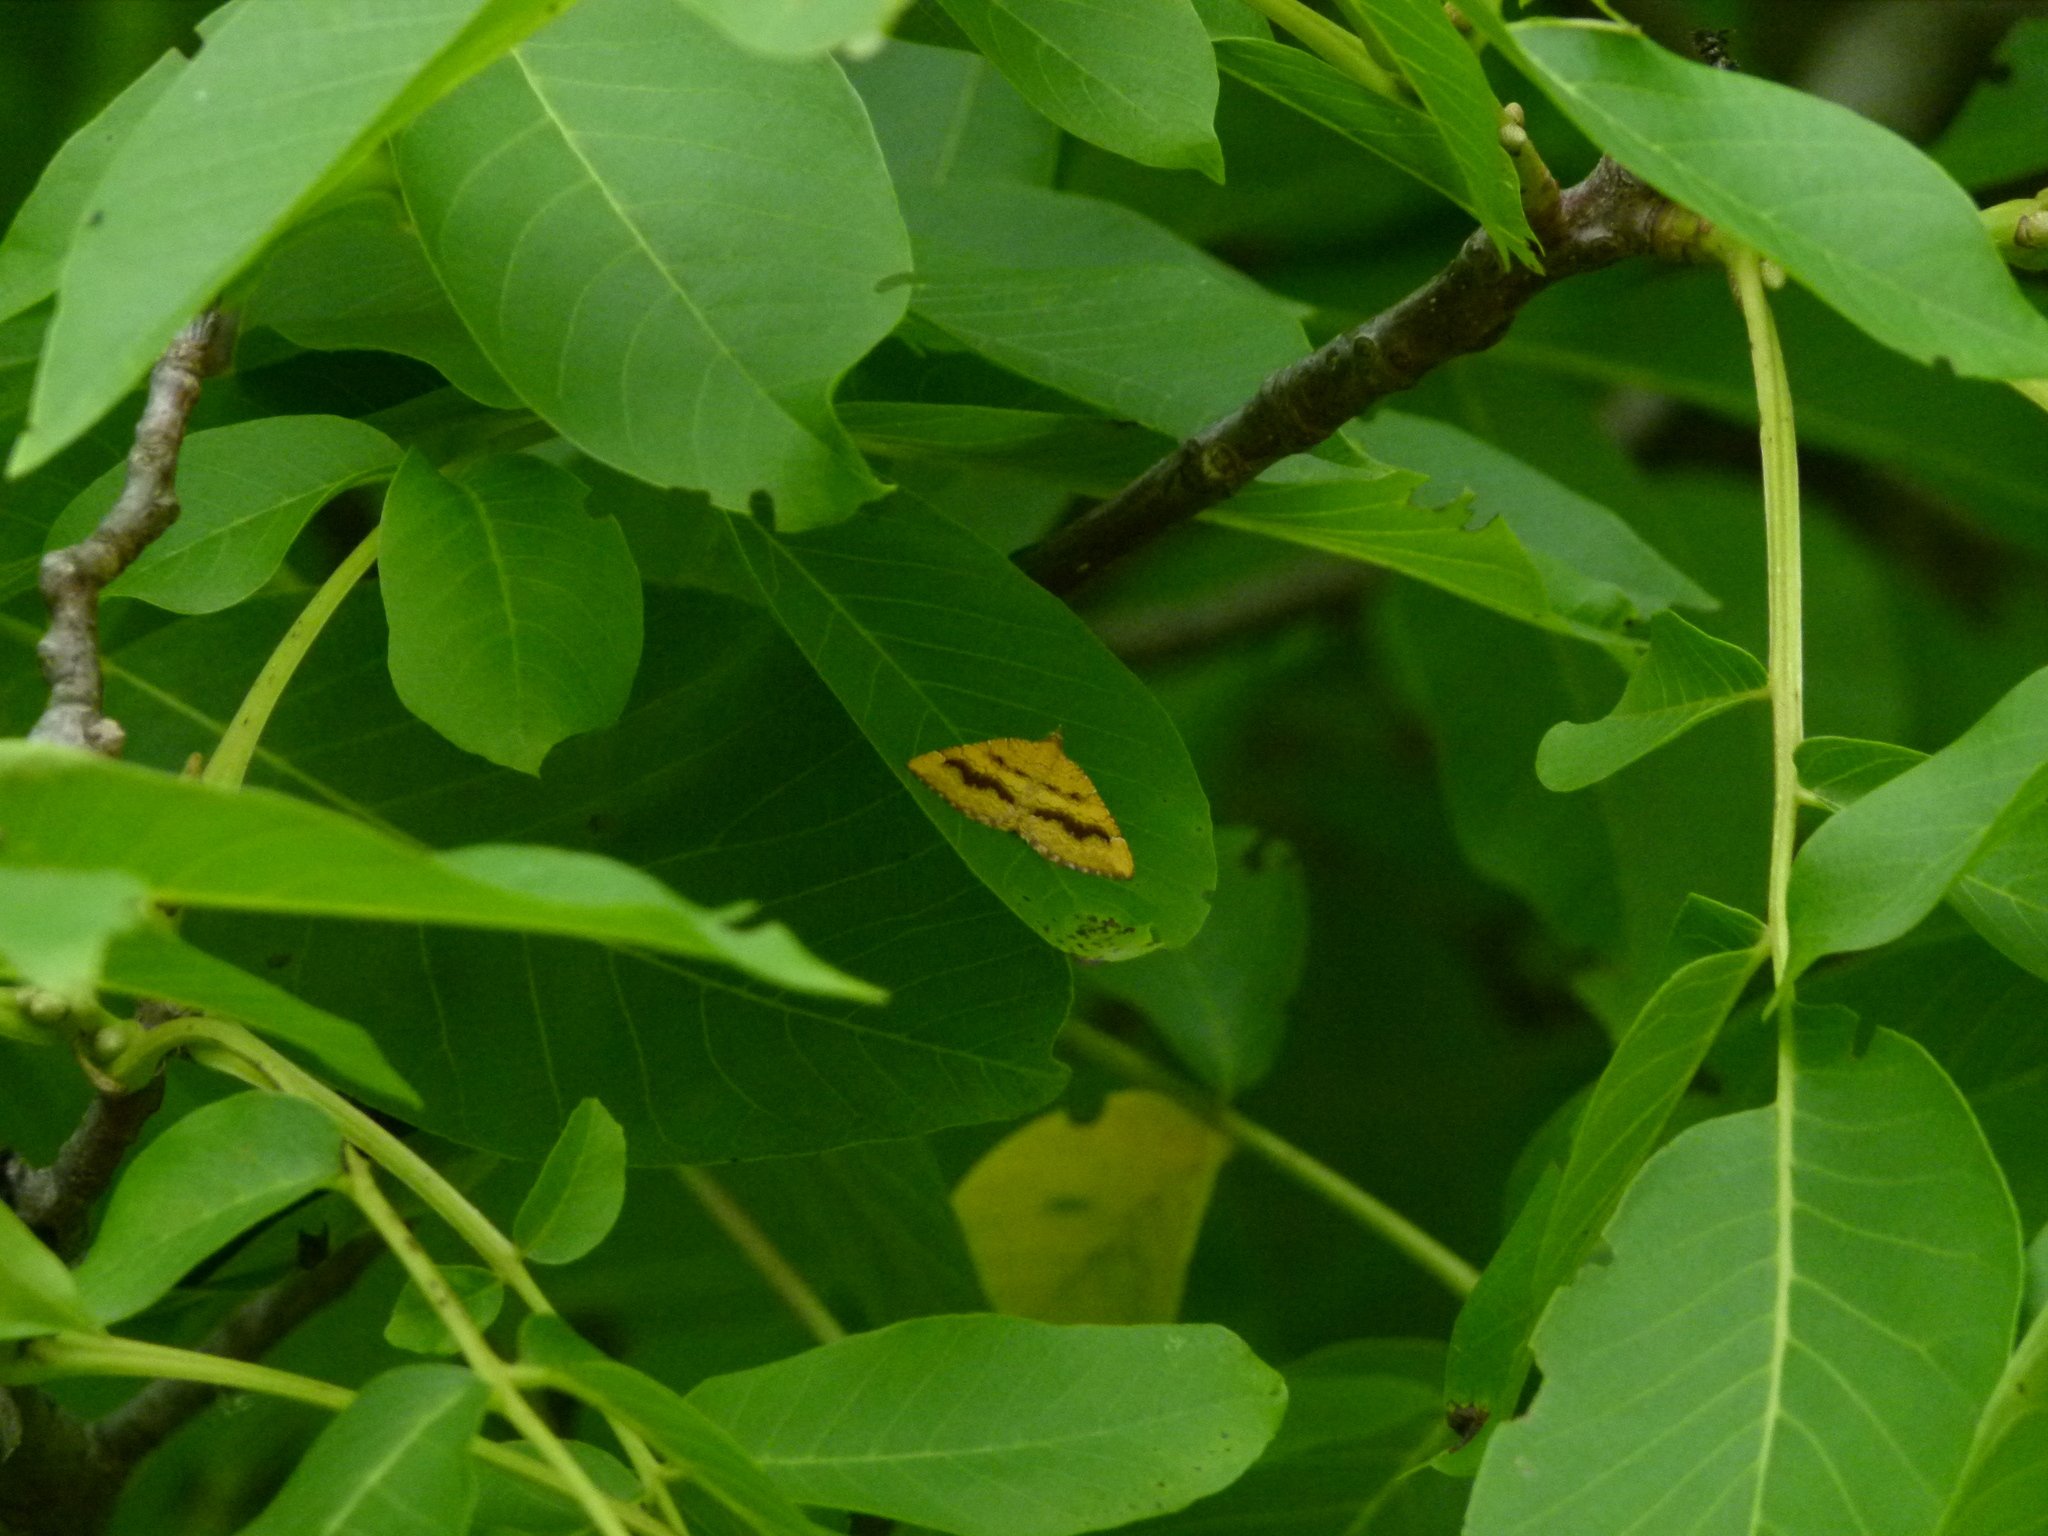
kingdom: Animalia
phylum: Arthropoda
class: Insecta
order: Lepidoptera
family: Geometridae
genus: Camptogramma
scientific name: Camptogramma bilineata
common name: Yellow shell
